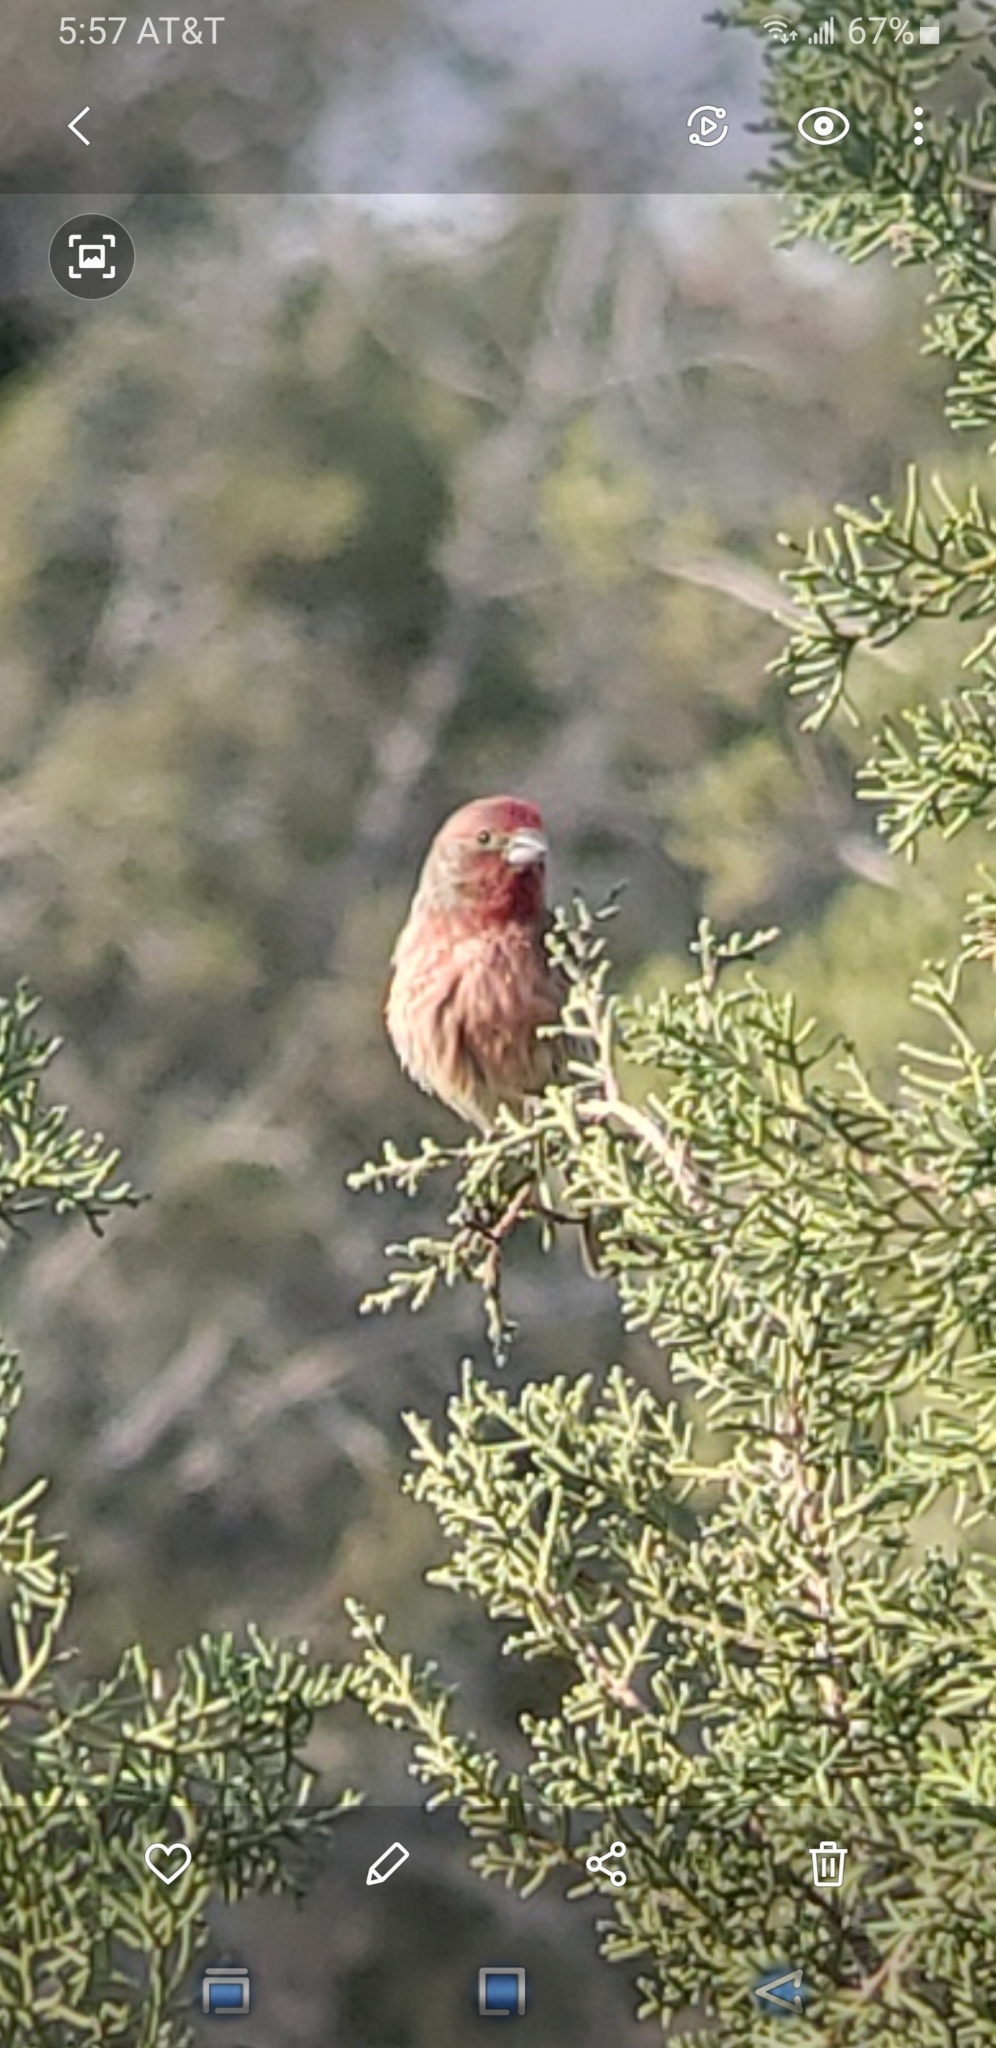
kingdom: Animalia
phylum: Chordata
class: Aves
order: Passeriformes
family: Fringillidae
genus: Haemorhous
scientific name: Haemorhous mexicanus
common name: House finch
